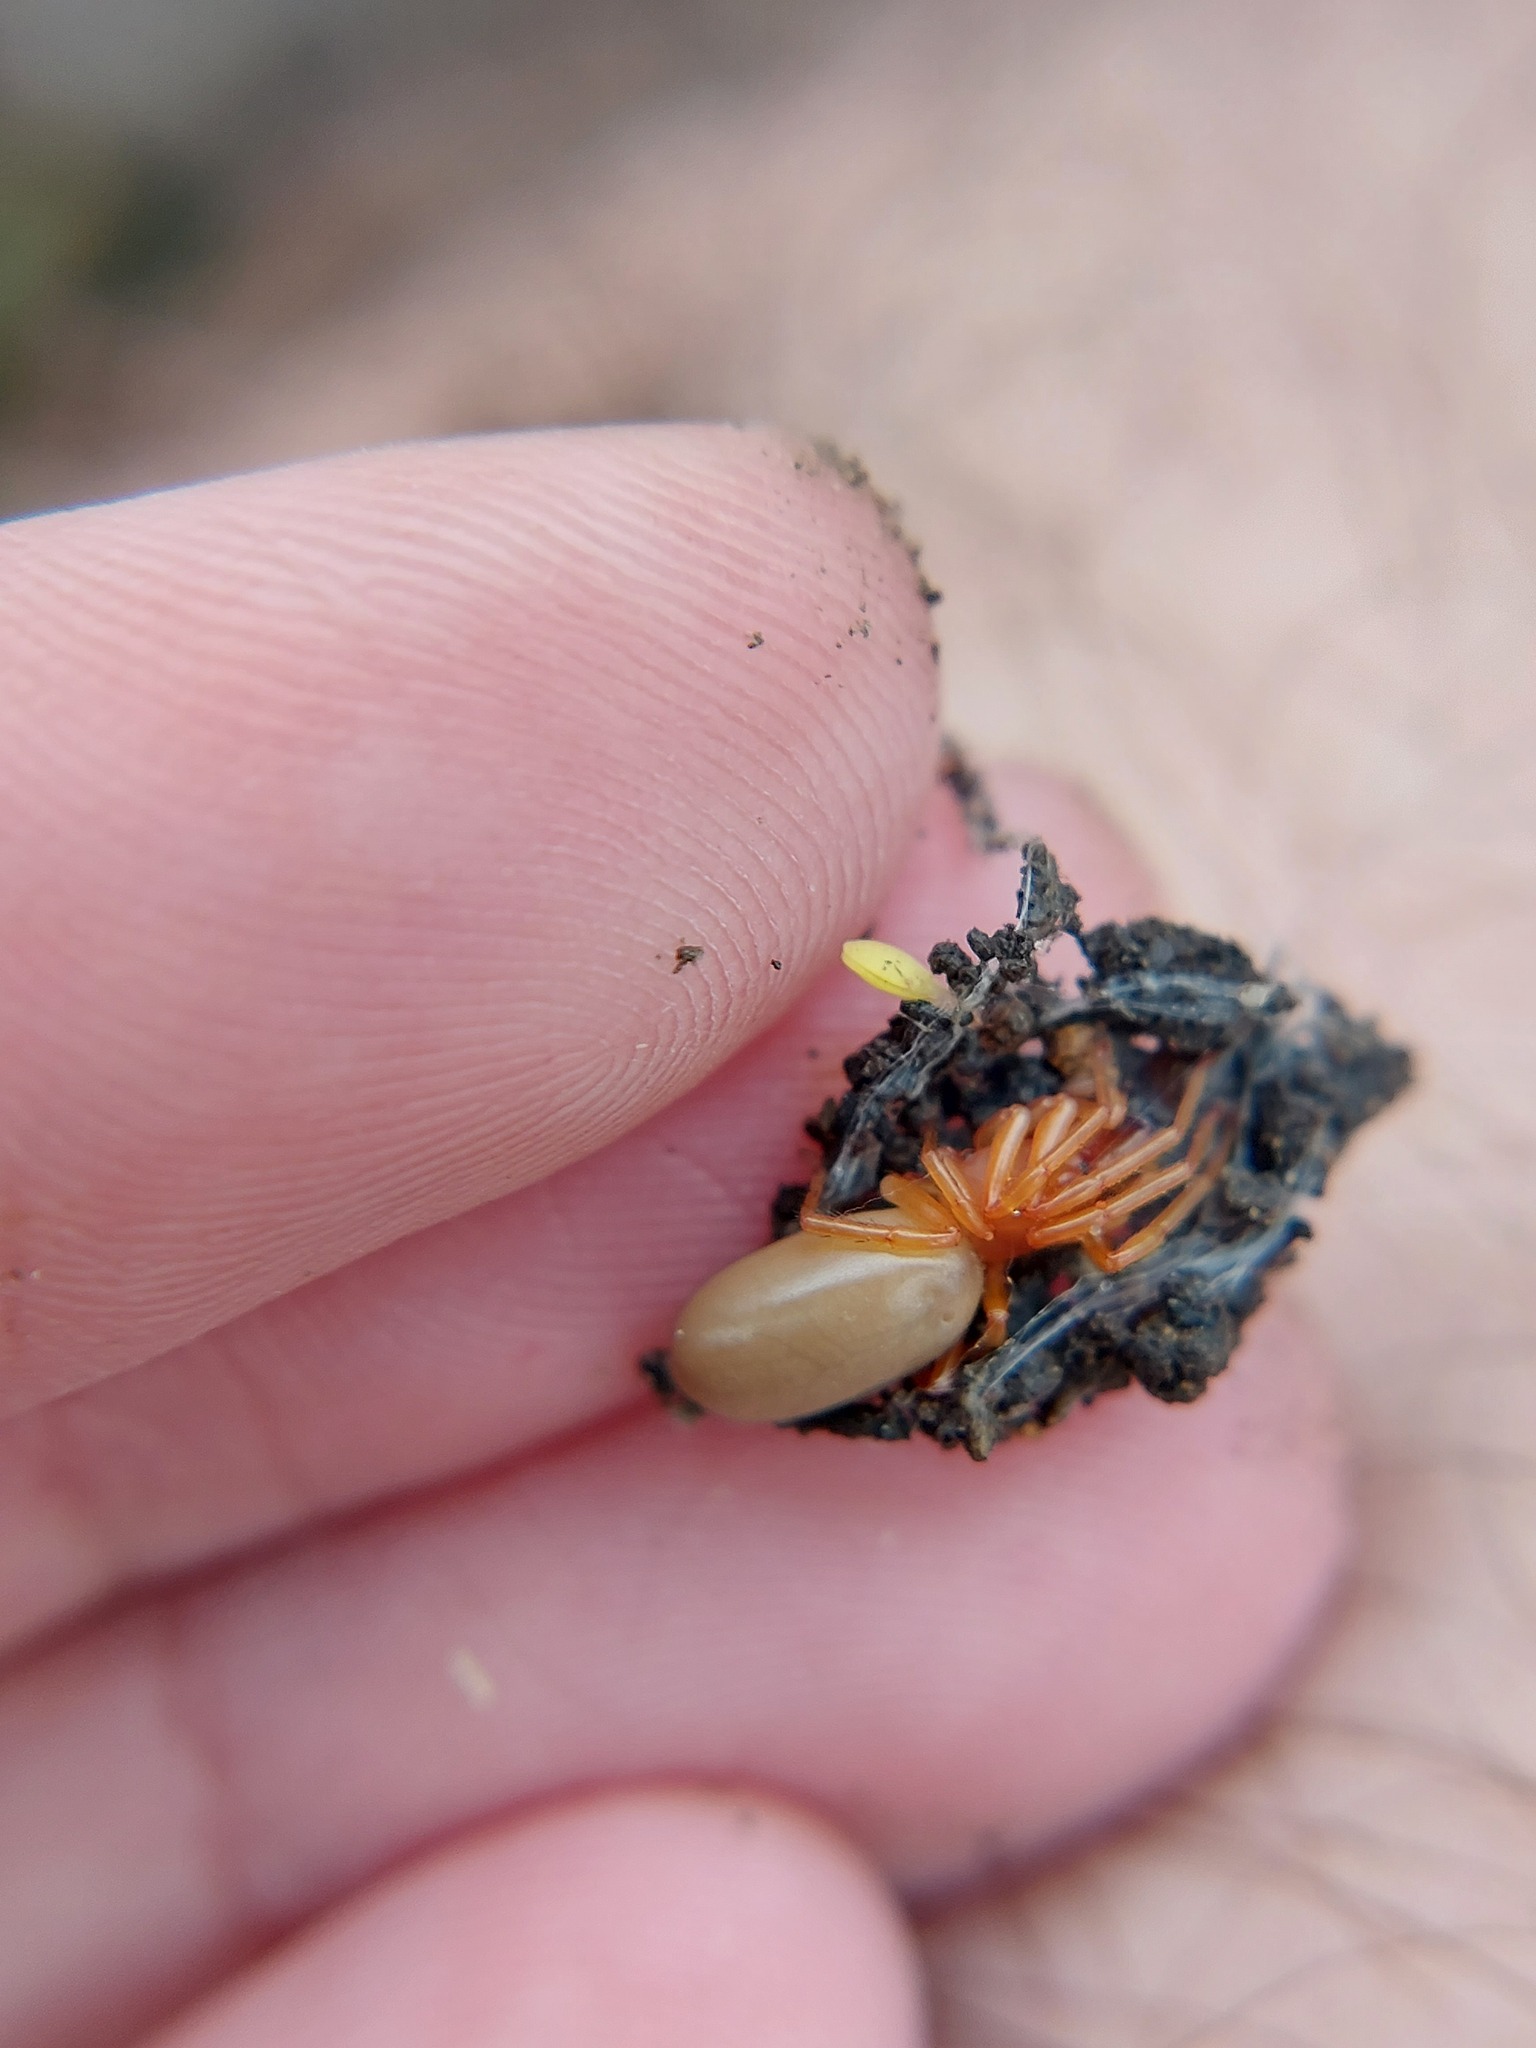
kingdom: Animalia
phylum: Arthropoda
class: Arachnida
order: Araneae
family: Dysderidae
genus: Dysdera
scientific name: Dysdera crocata
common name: Woodlouse spider
